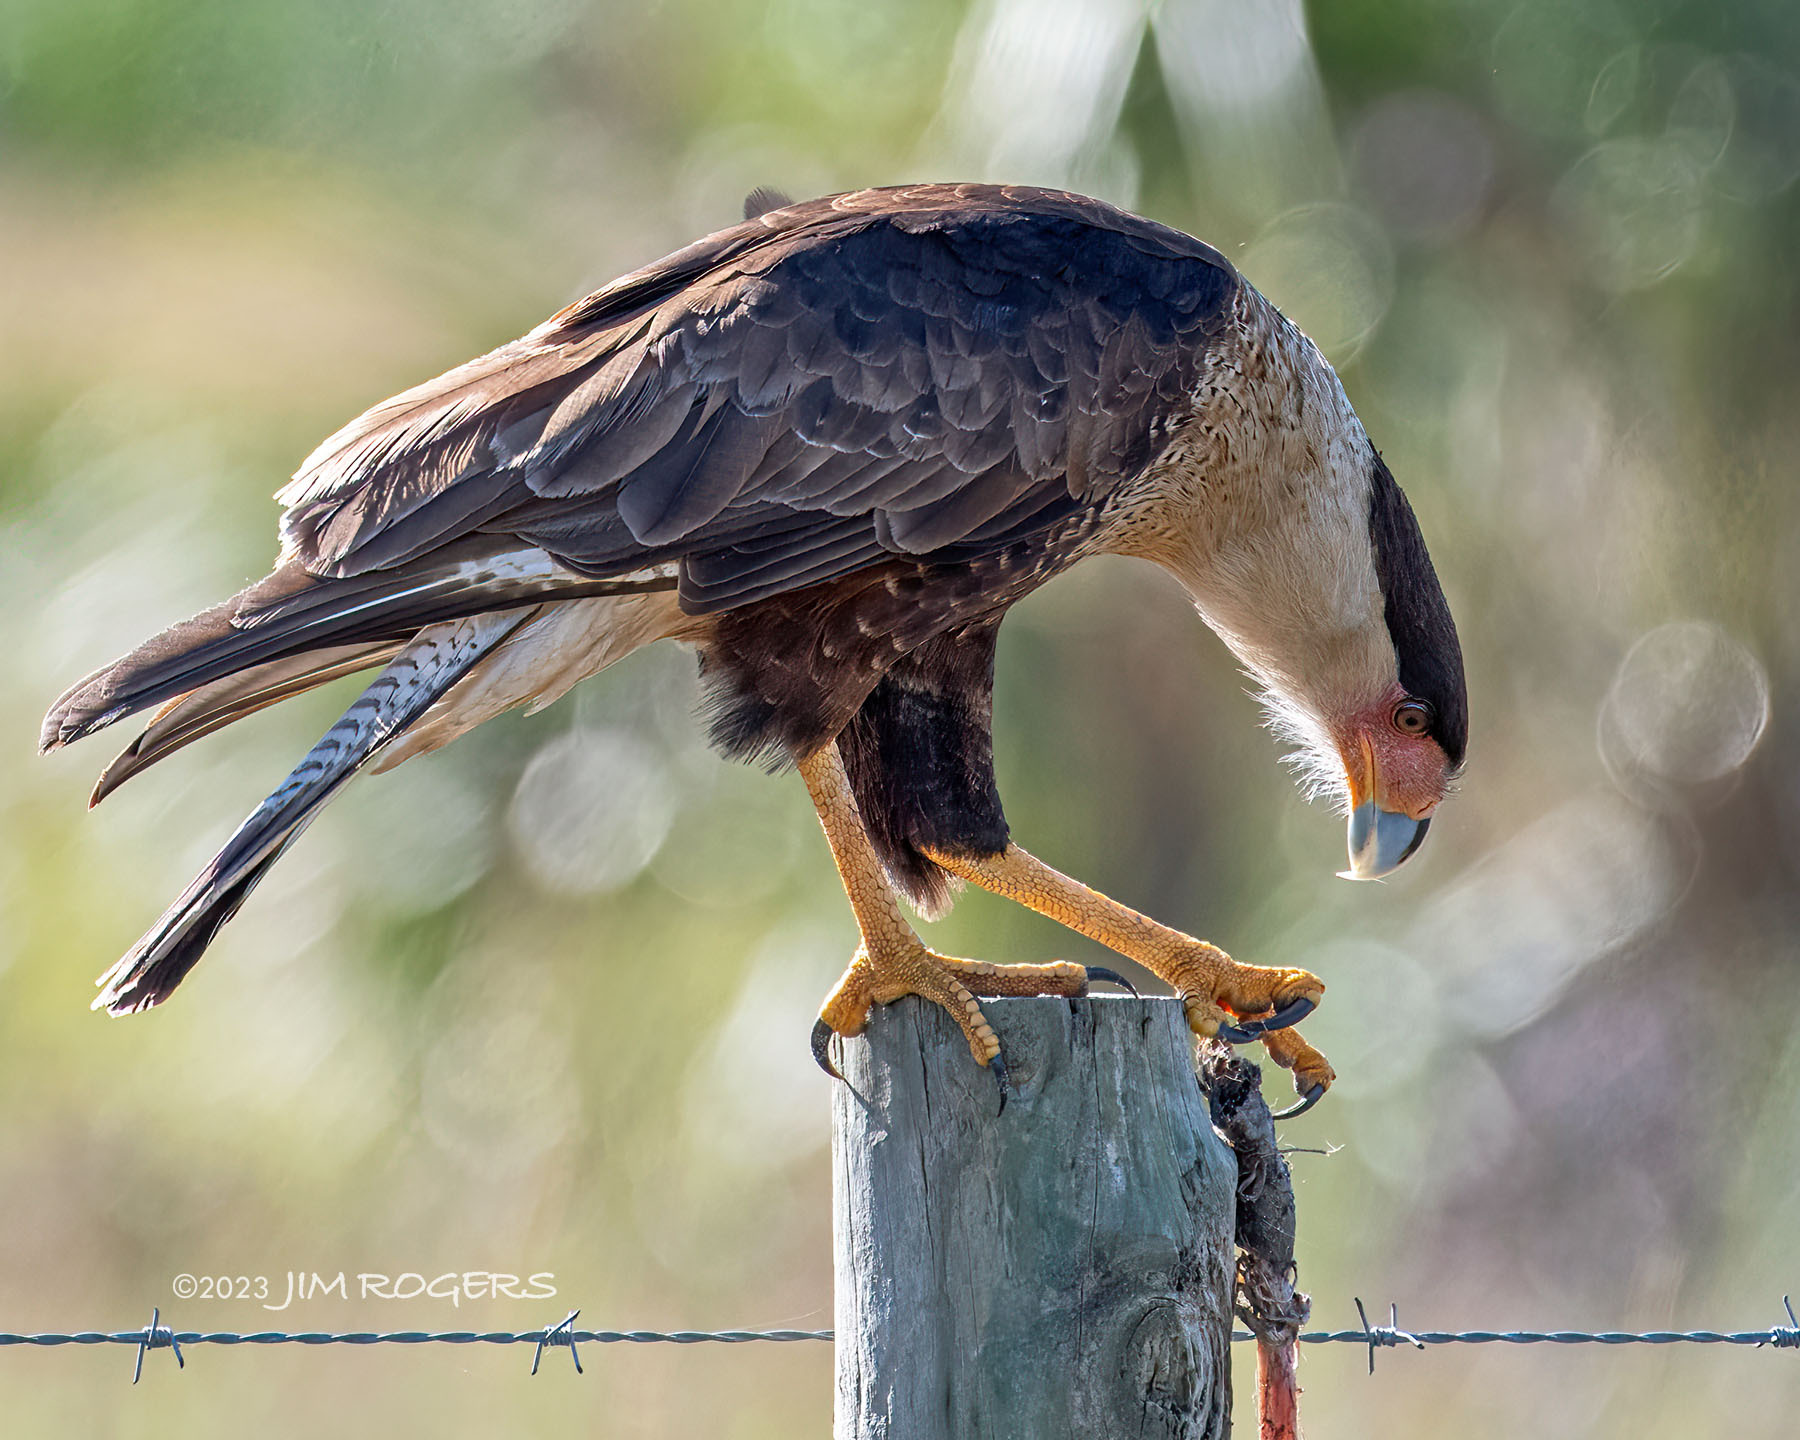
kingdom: Animalia
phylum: Chordata
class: Aves
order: Falconiformes
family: Falconidae
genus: Caracara
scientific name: Caracara plancus
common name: Southern caracara
